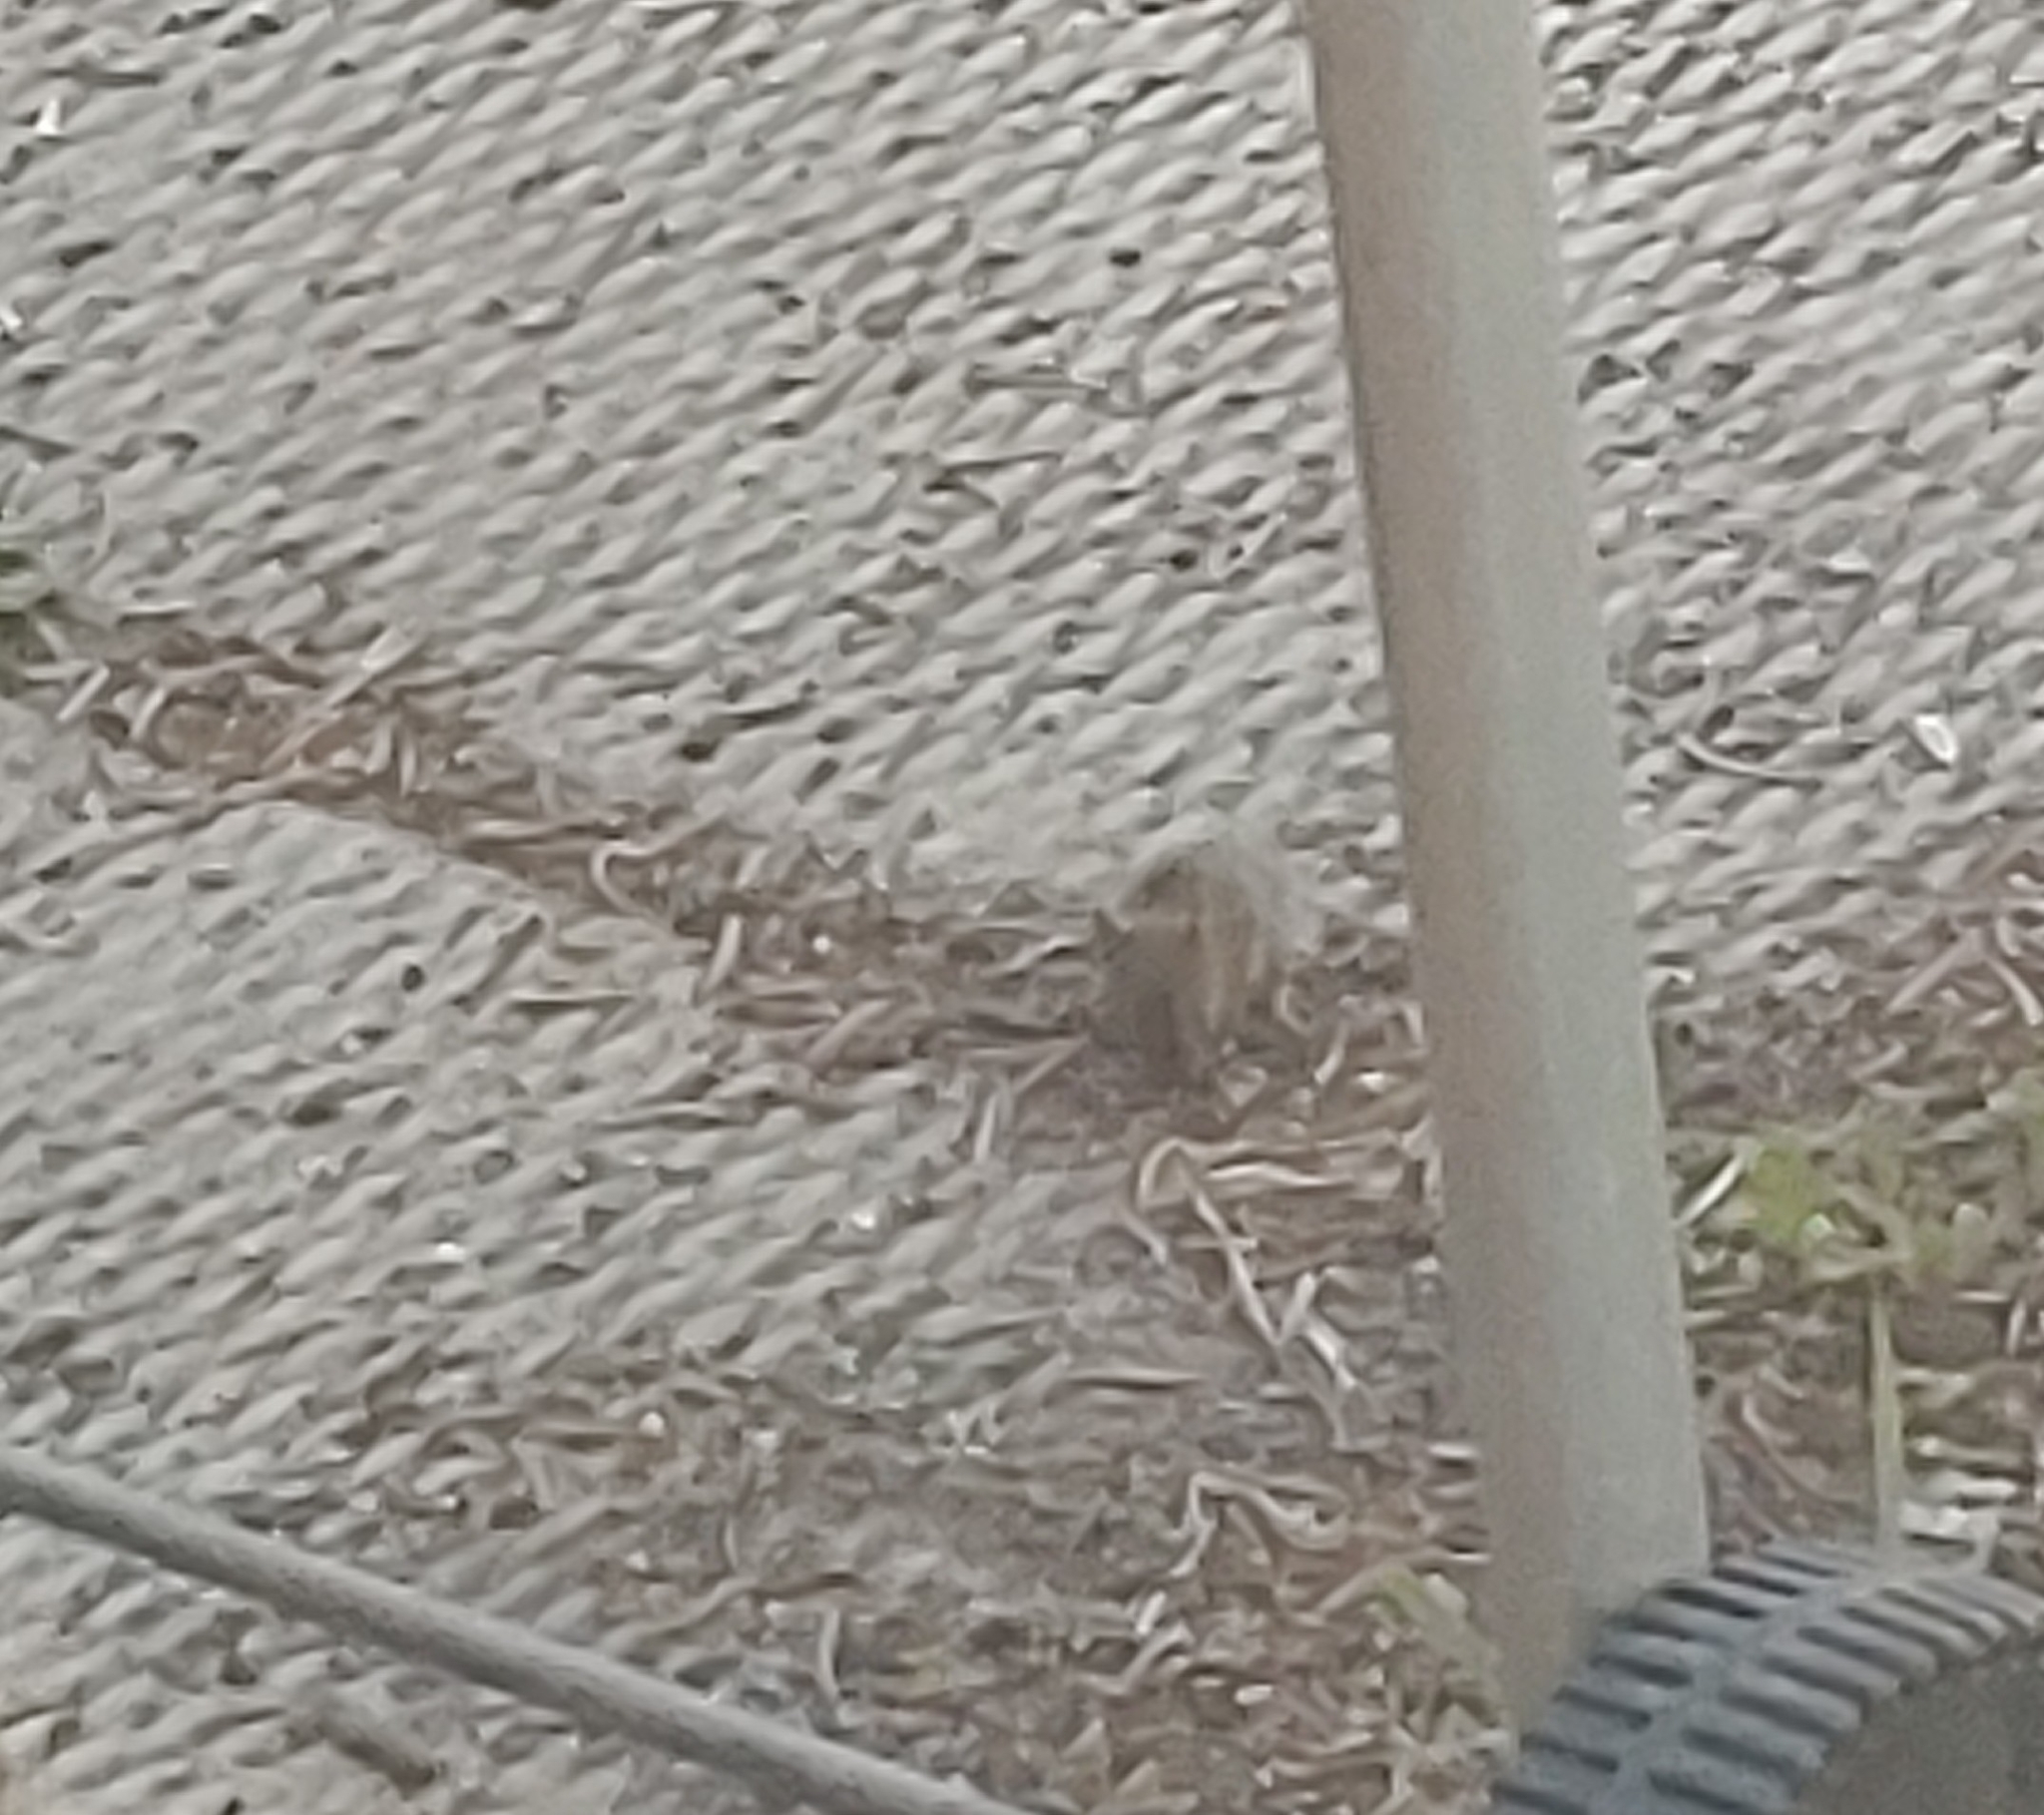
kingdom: Animalia
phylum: Chordata
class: Mammalia
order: Rodentia
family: Muridae
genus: Mus
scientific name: Mus musculus
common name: House mouse
